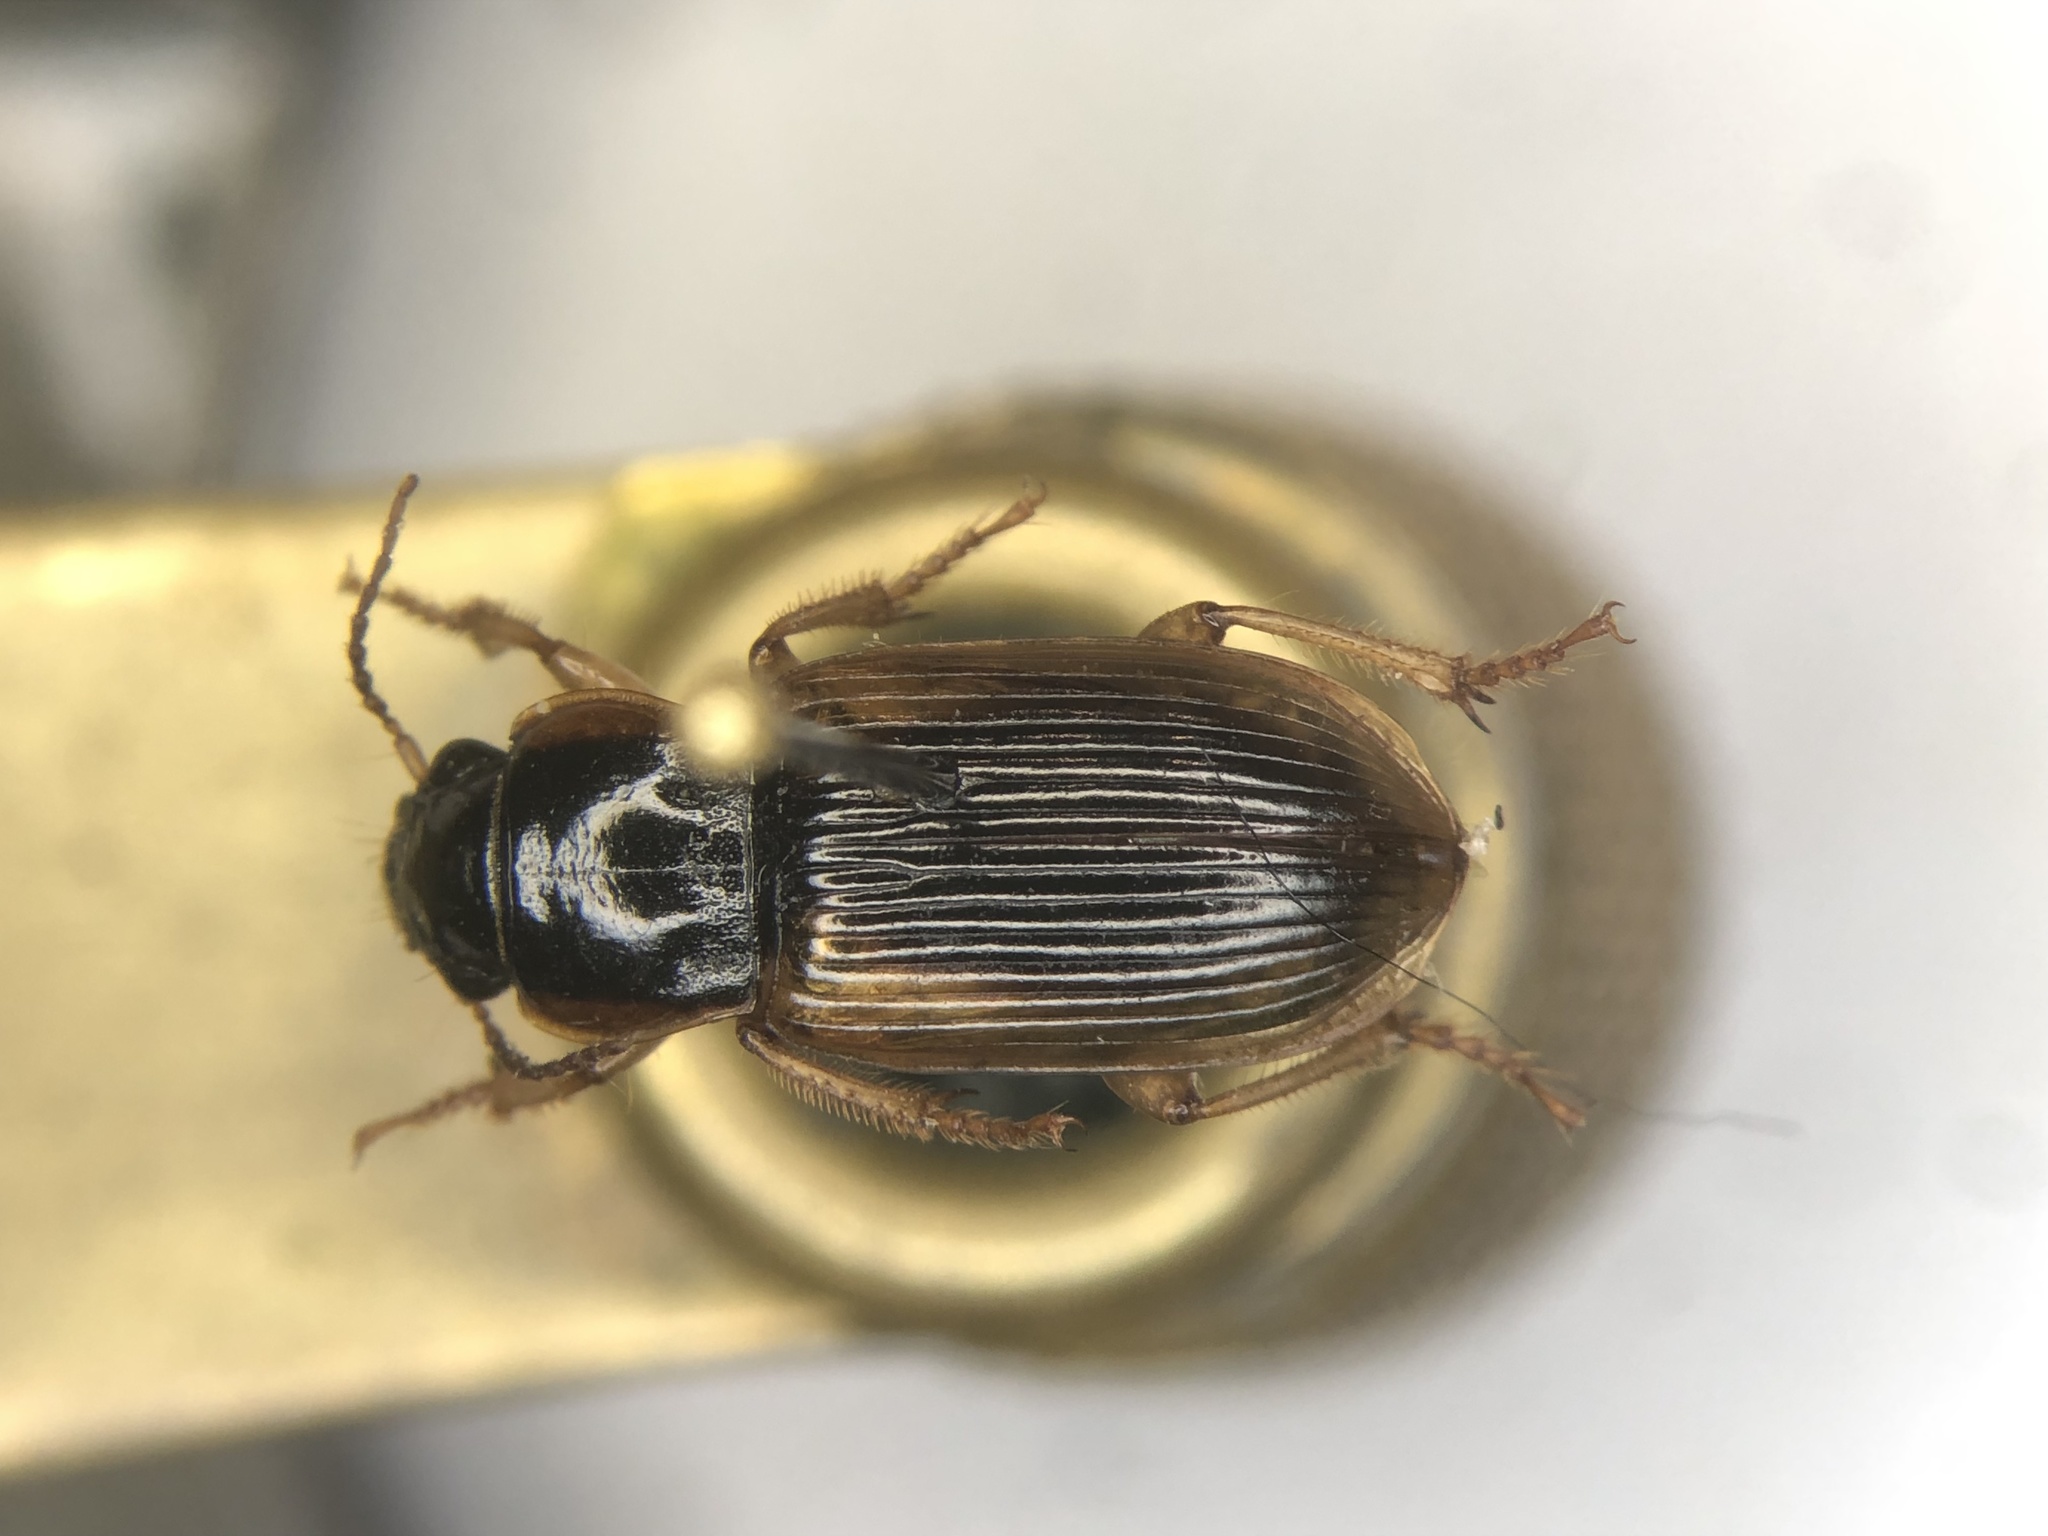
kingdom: Animalia
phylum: Arthropoda
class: Insecta
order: Coleoptera
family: Carabidae
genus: Anisodactylus
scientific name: Anisodactylus discoideus
